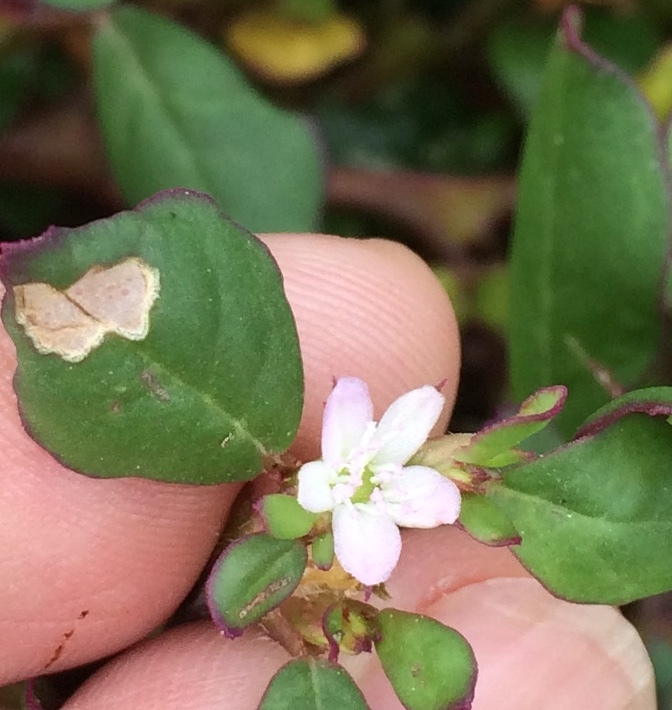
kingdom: Plantae
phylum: Tracheophyta
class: Magnoliopsida
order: Malpighiales
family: Euphorbiaceae
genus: Euphorbia
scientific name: Euphorbia prostrata
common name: Prostrate sandmat
